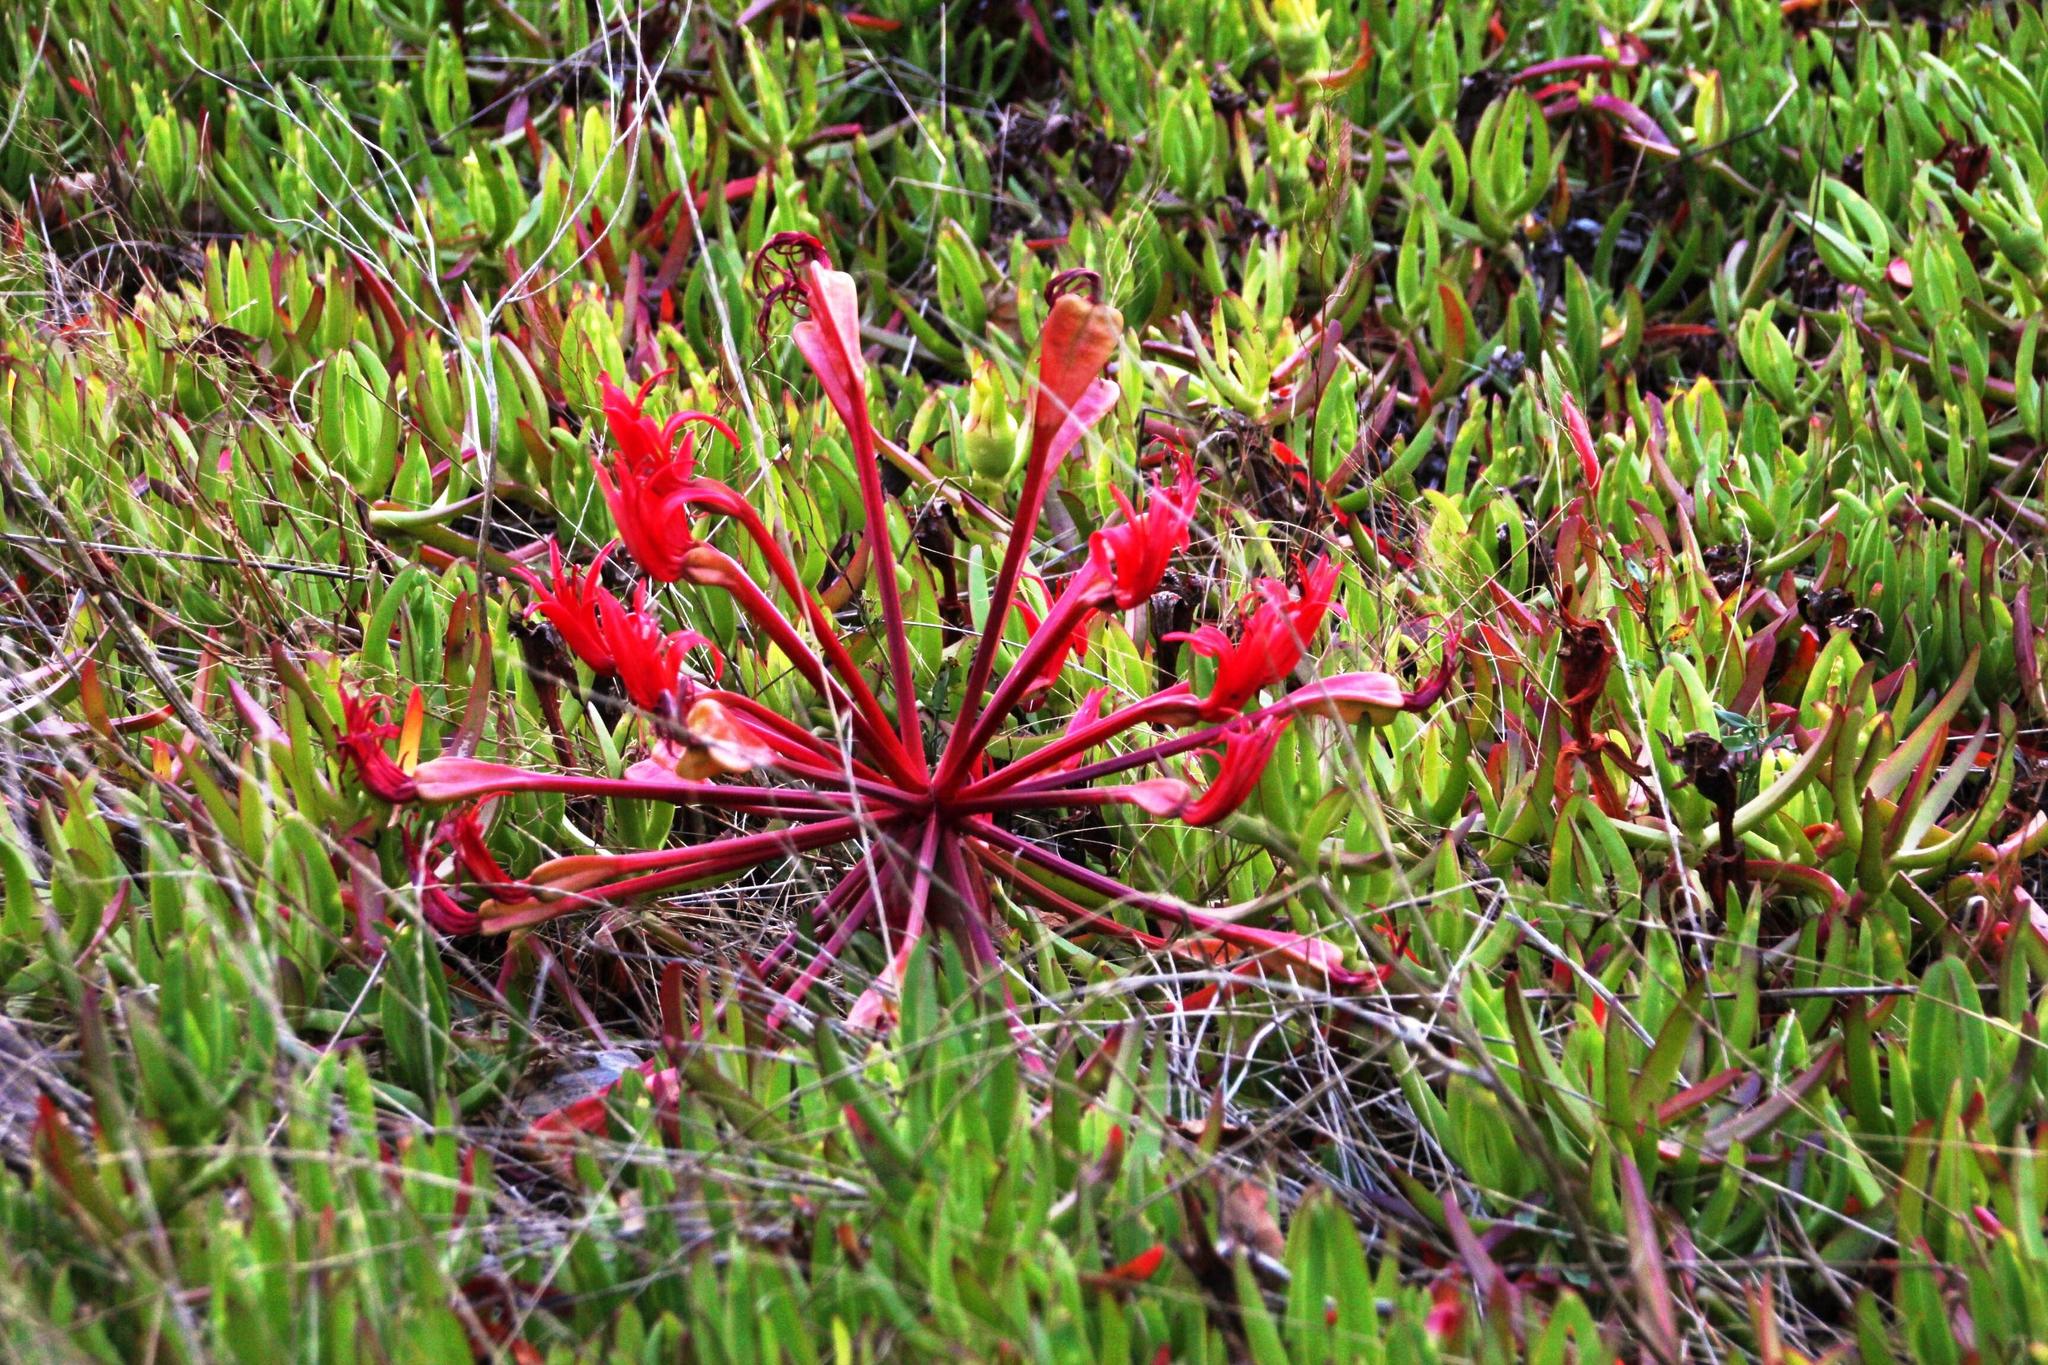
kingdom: Plantae
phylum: Tracheophyta
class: Liliopsida
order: Asparagales
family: Amaryllidaceae
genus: Brunsvigia
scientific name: Brunsvigia orientalis
